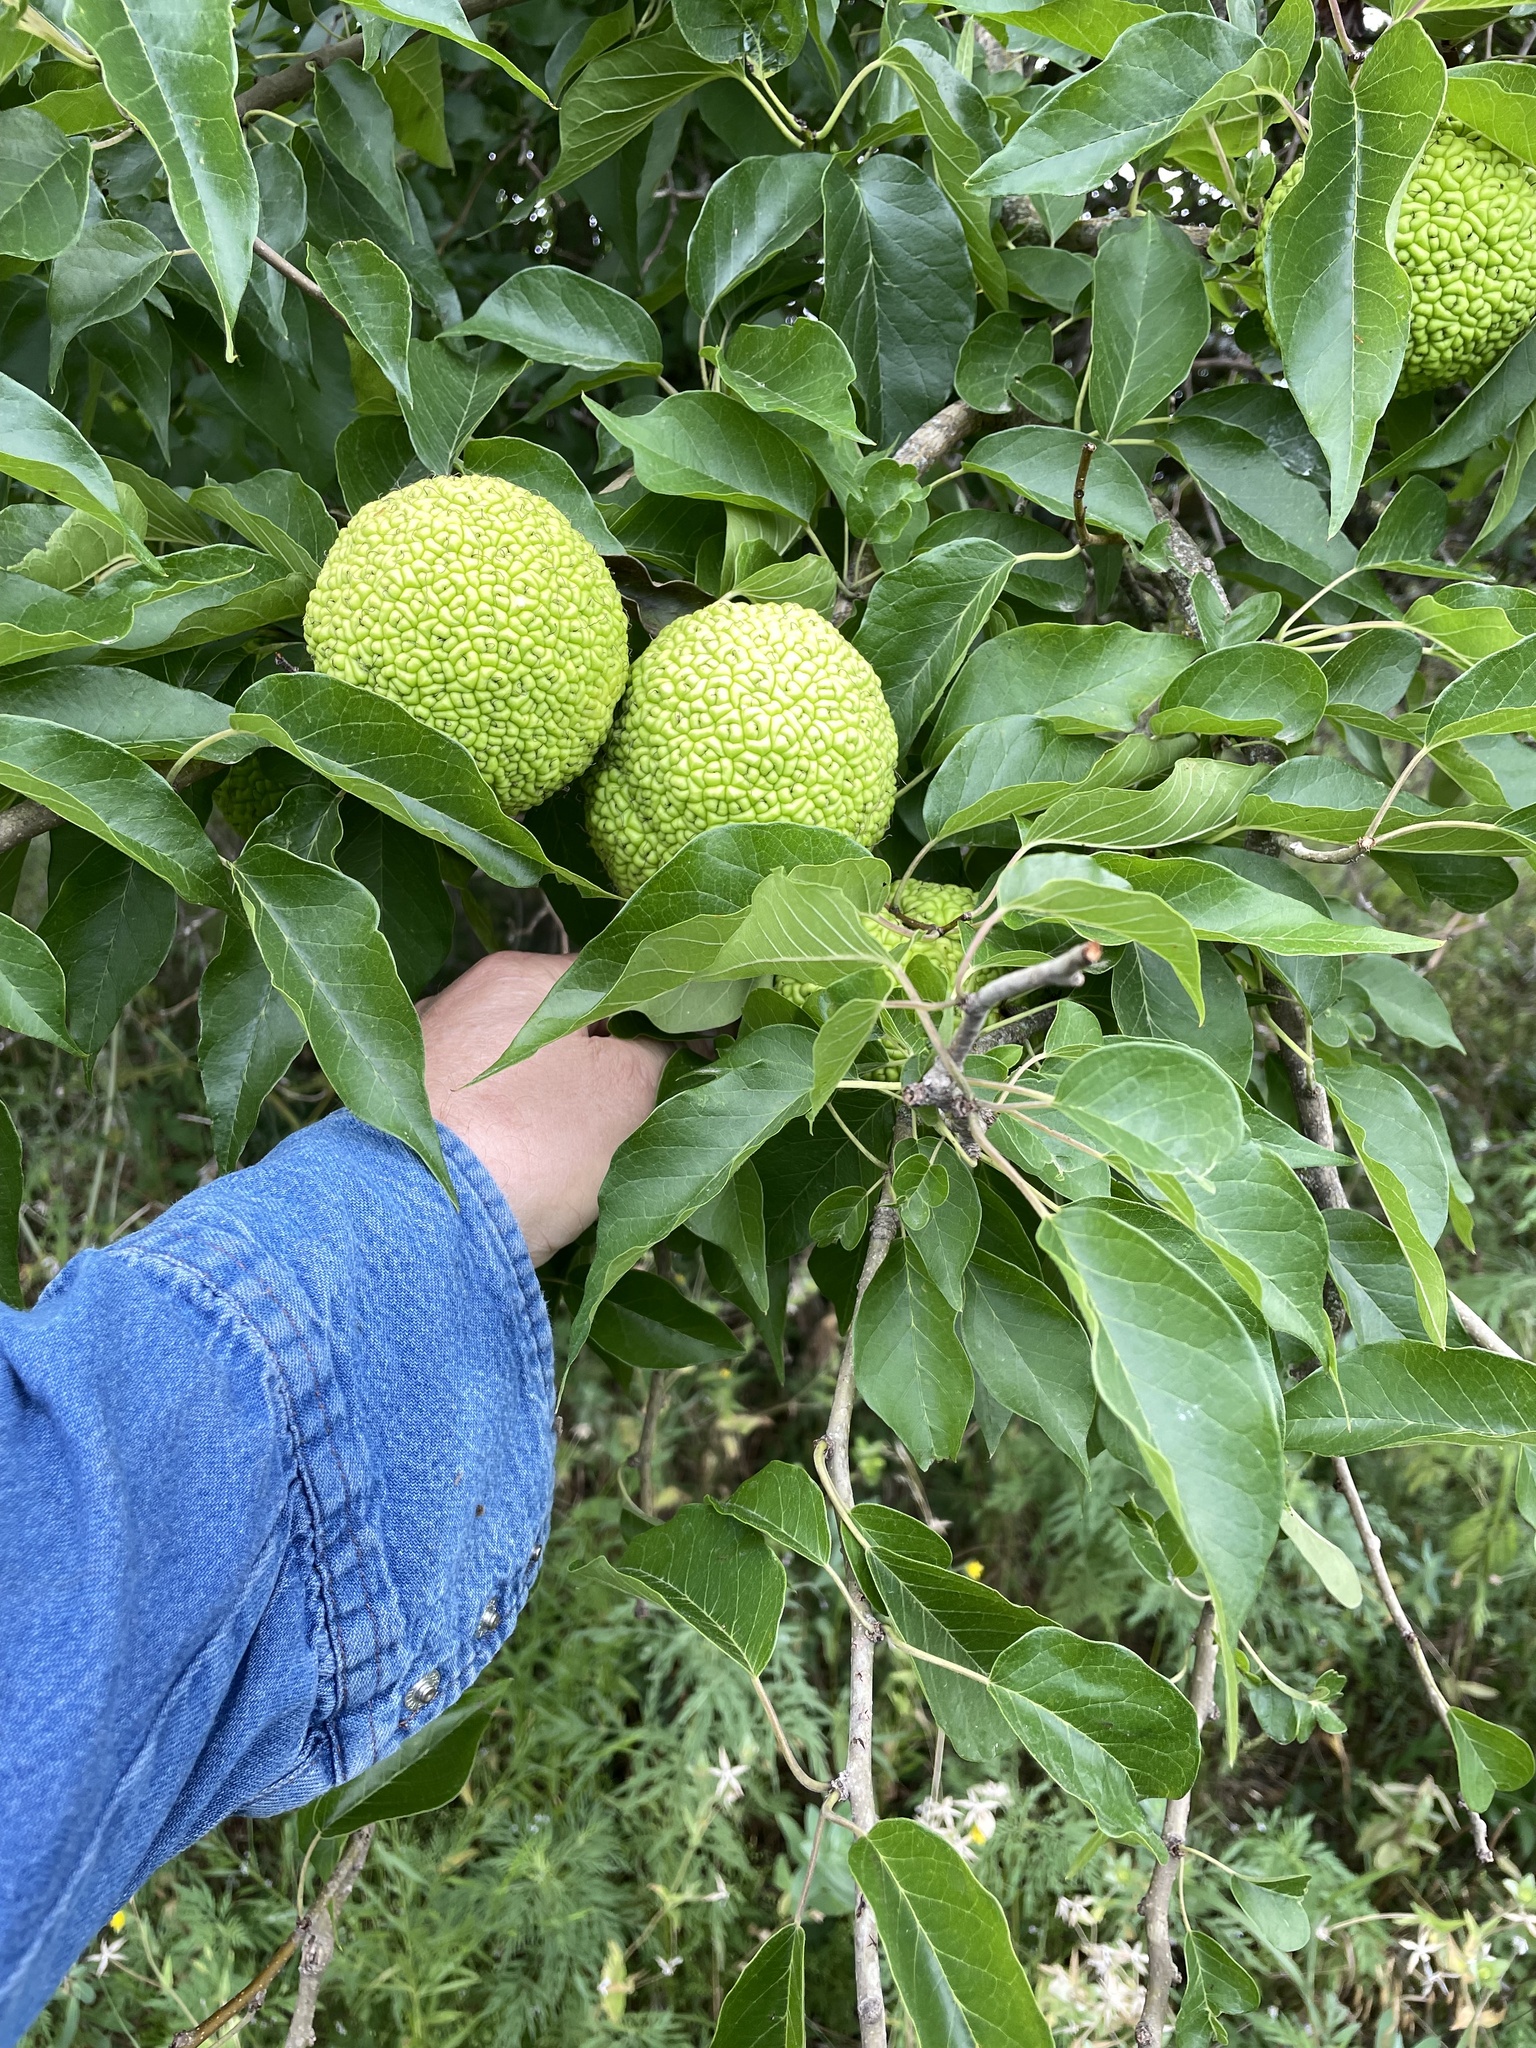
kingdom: Plantae
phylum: Tracheophyta
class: Magnoliopsida
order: Rosales
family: Moraceae
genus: Maclura
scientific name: Maclura pomifera
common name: Osage-orange
